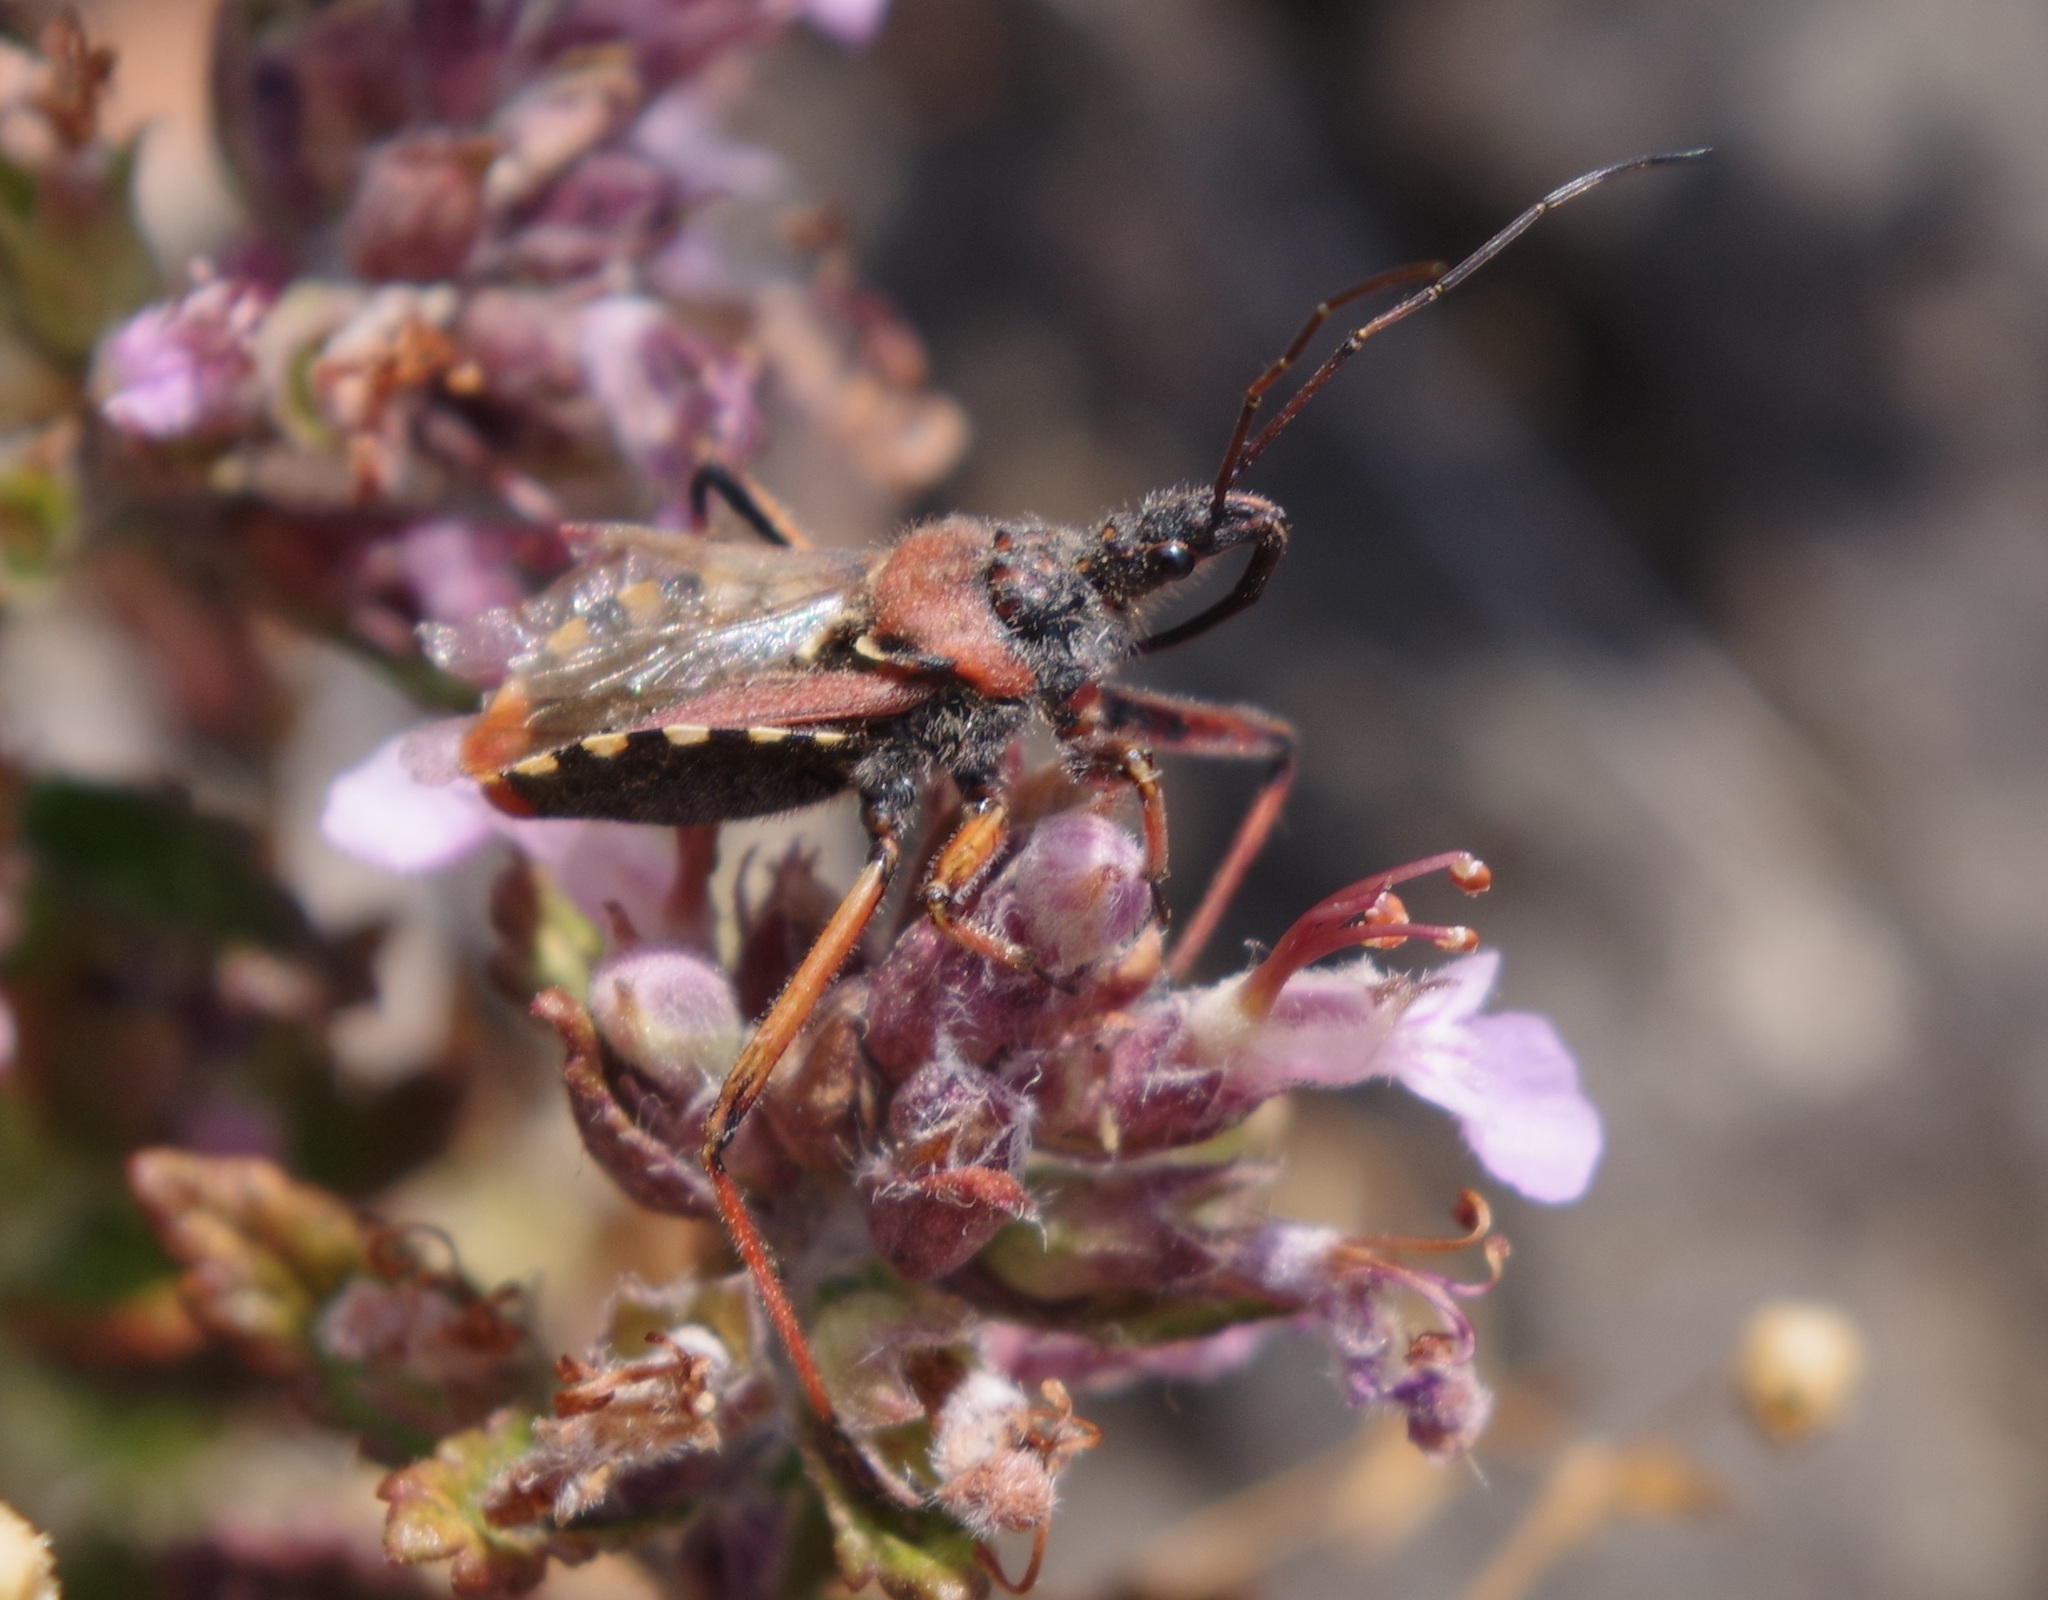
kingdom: Animalia
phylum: Arthropoda
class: Insecta
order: Hemiptera
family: Reduviidae
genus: Rhynocoris
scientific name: Rhynocoris erythropus
